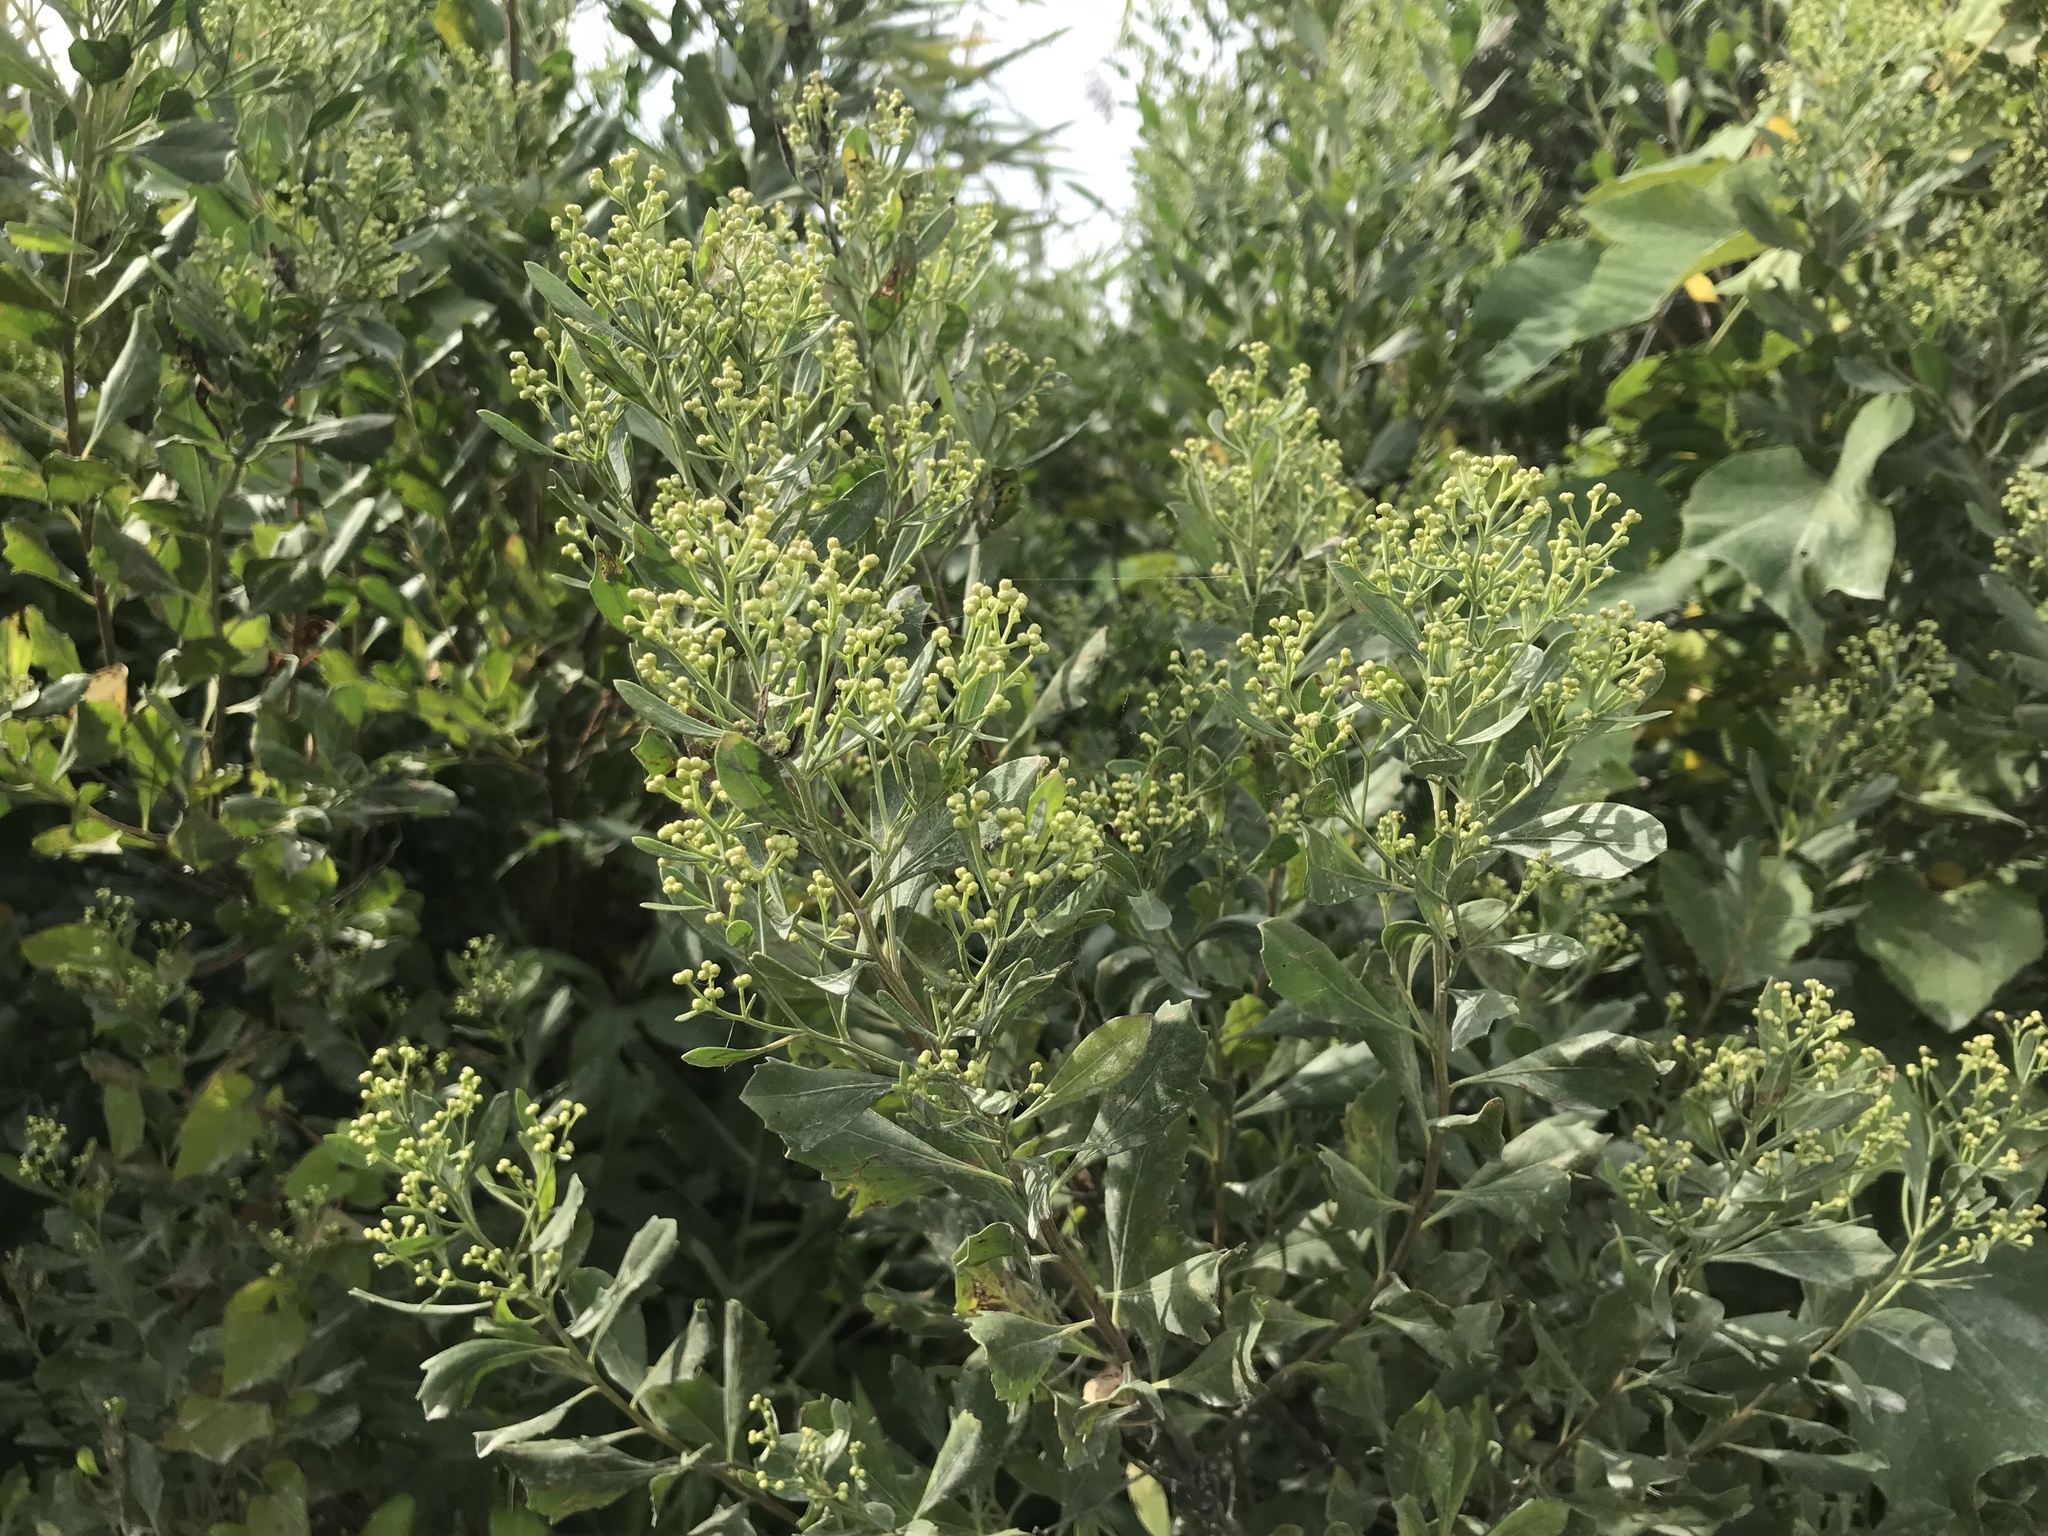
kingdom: Plantae
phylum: Tracheophyta
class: Magnoliopsida
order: Asterales
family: Asteraceae
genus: Baccharis
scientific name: Baccharis halimifolia
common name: Eastern baccharis
